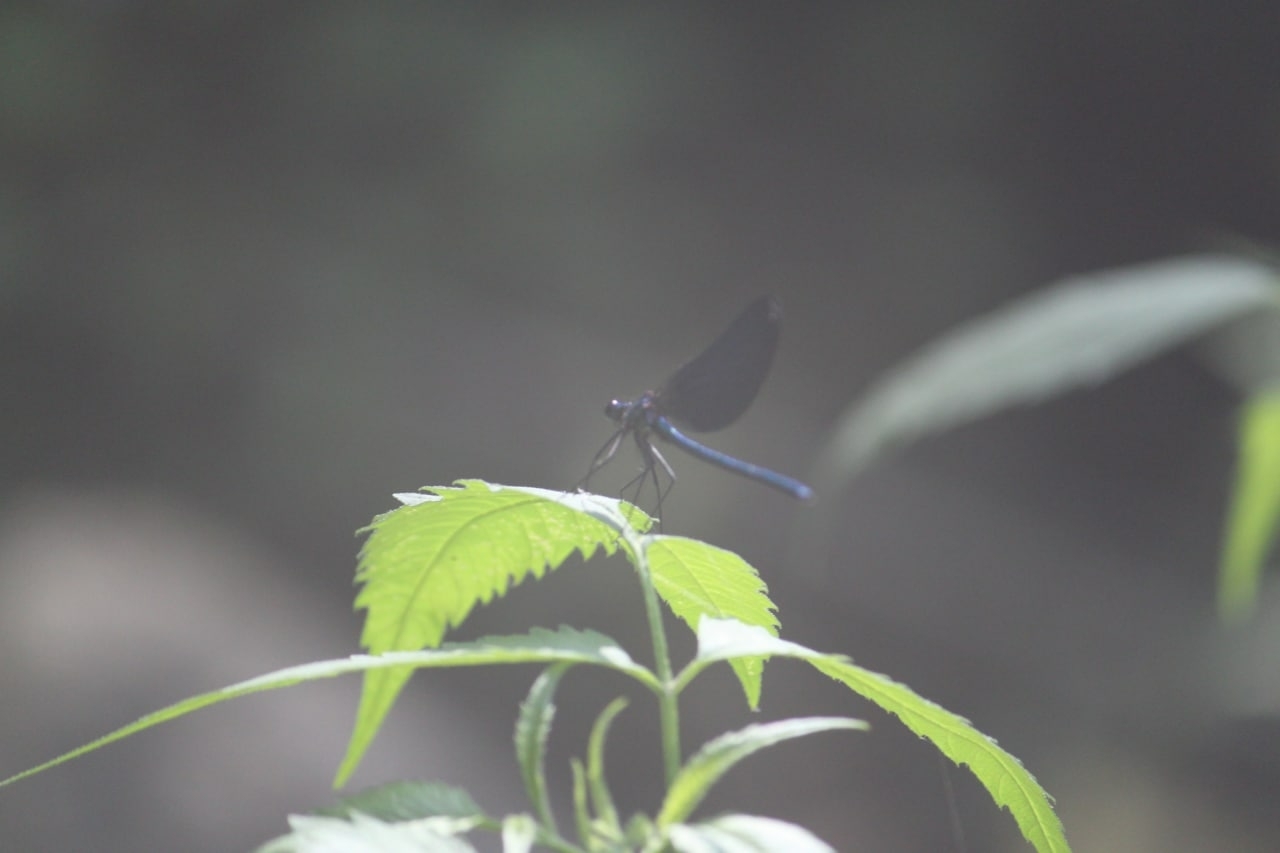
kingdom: Animalia
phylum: Arthropoda
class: Insecta
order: Odonata
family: Calopterygidae
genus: Calopteryx
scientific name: Calopteryx virgo
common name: Beautiful demoiselle
